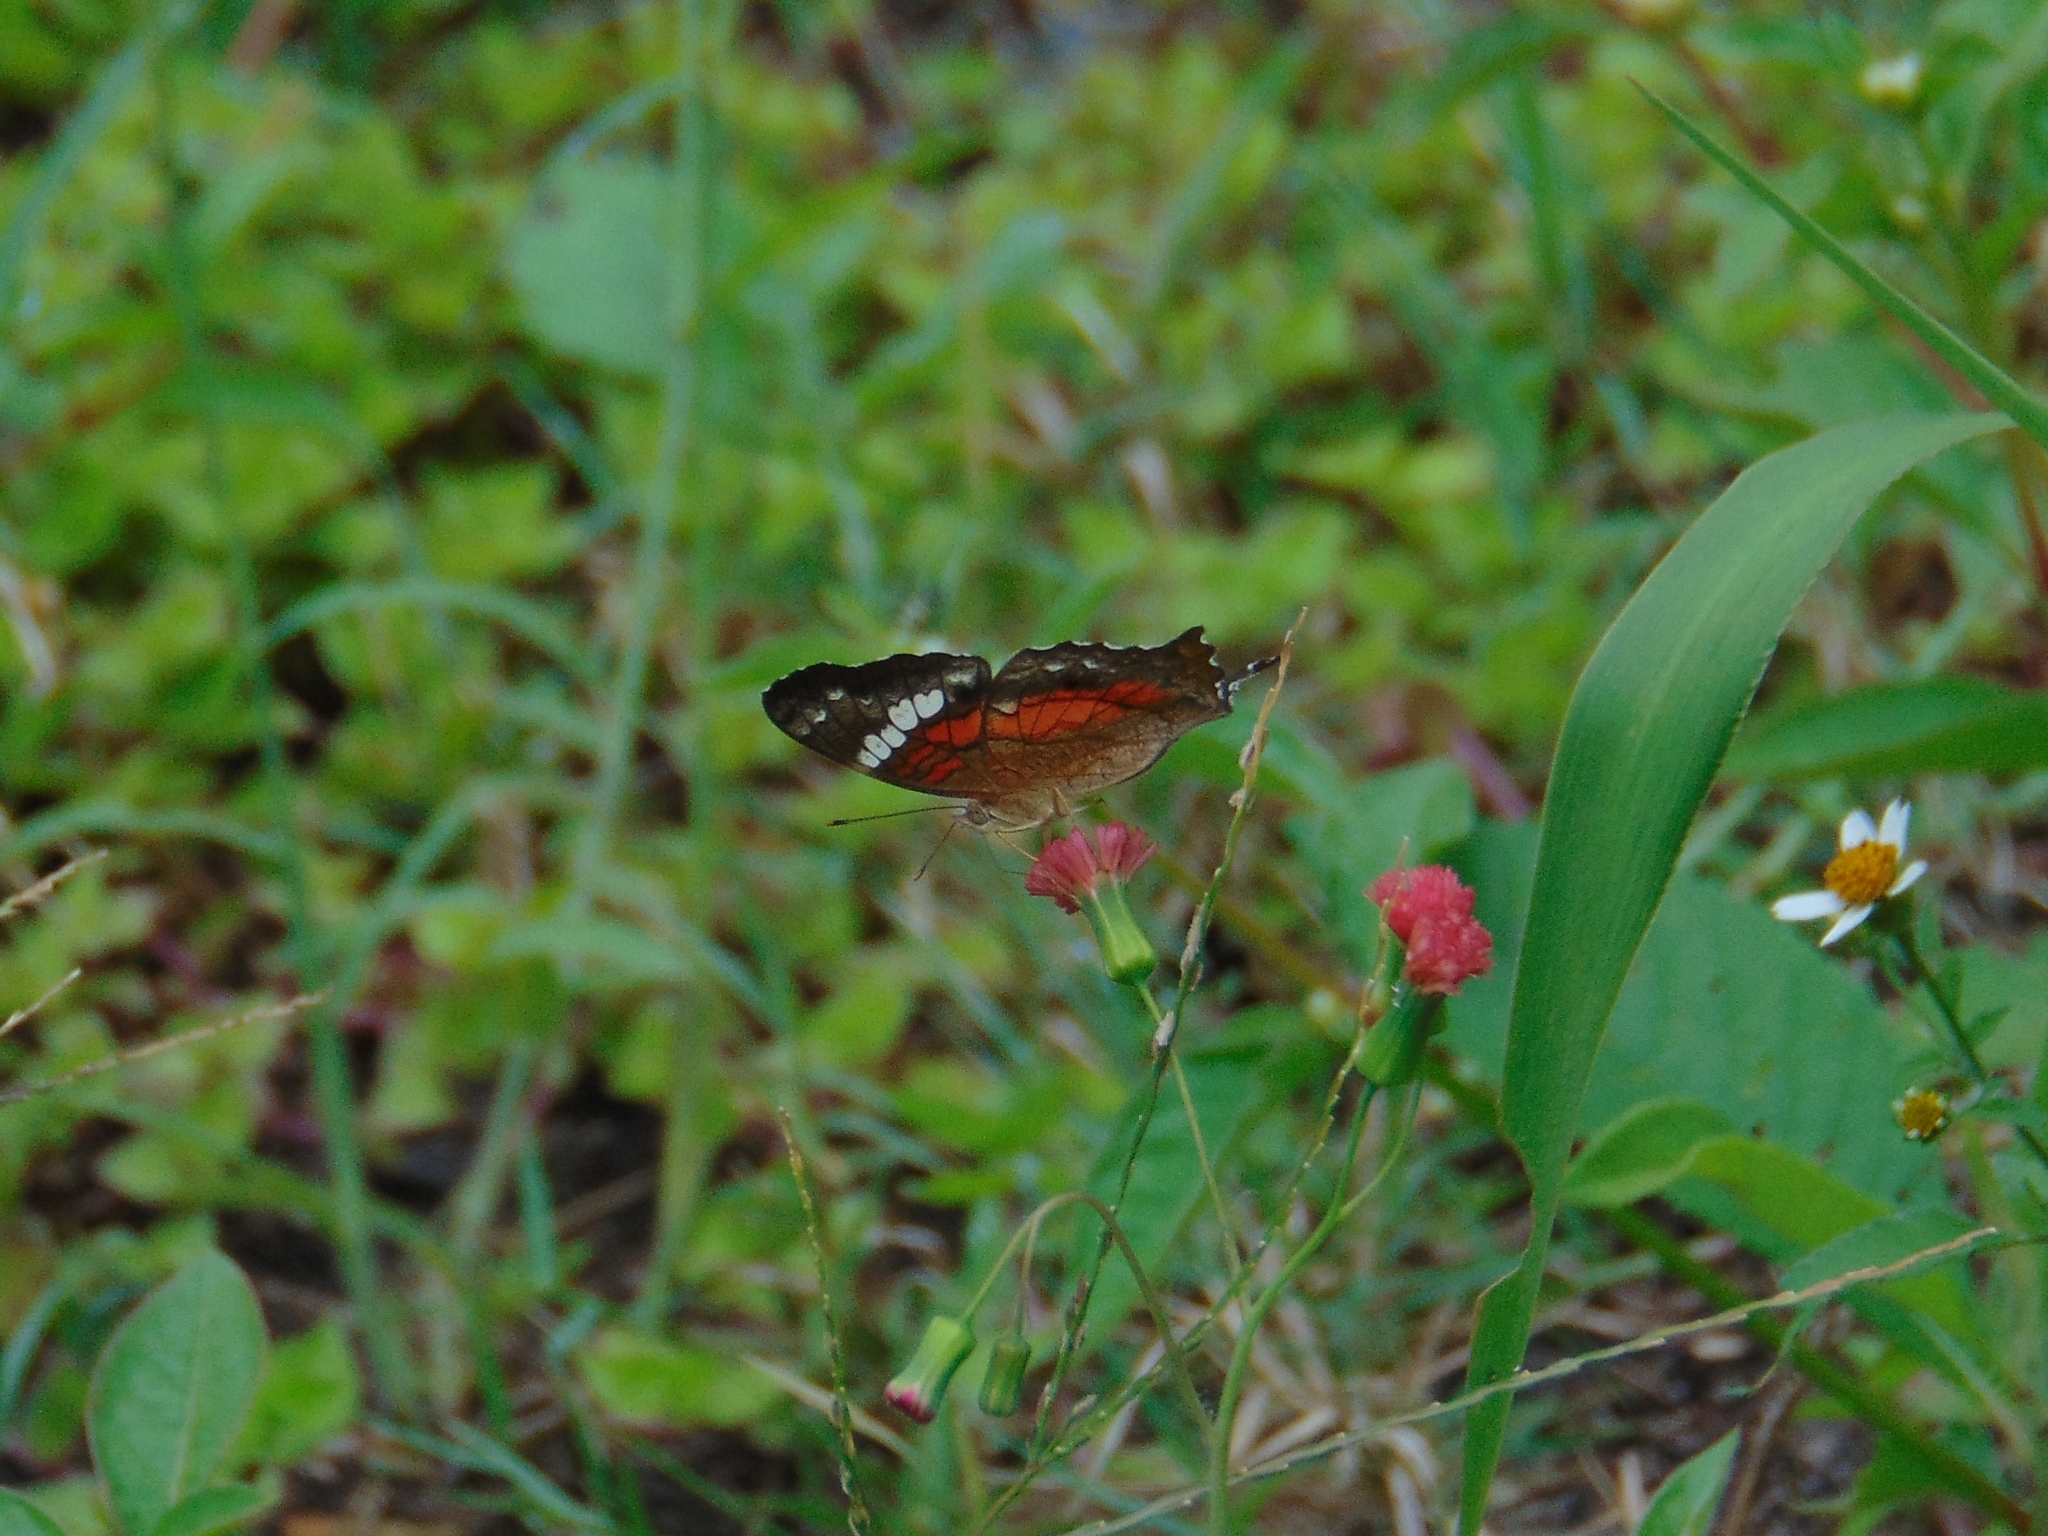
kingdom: Animalia
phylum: Arthropoda
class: Insecta
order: Lepidoptera
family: Nymphalidae
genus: Anartia
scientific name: Anartia amathea
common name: Red peacock
